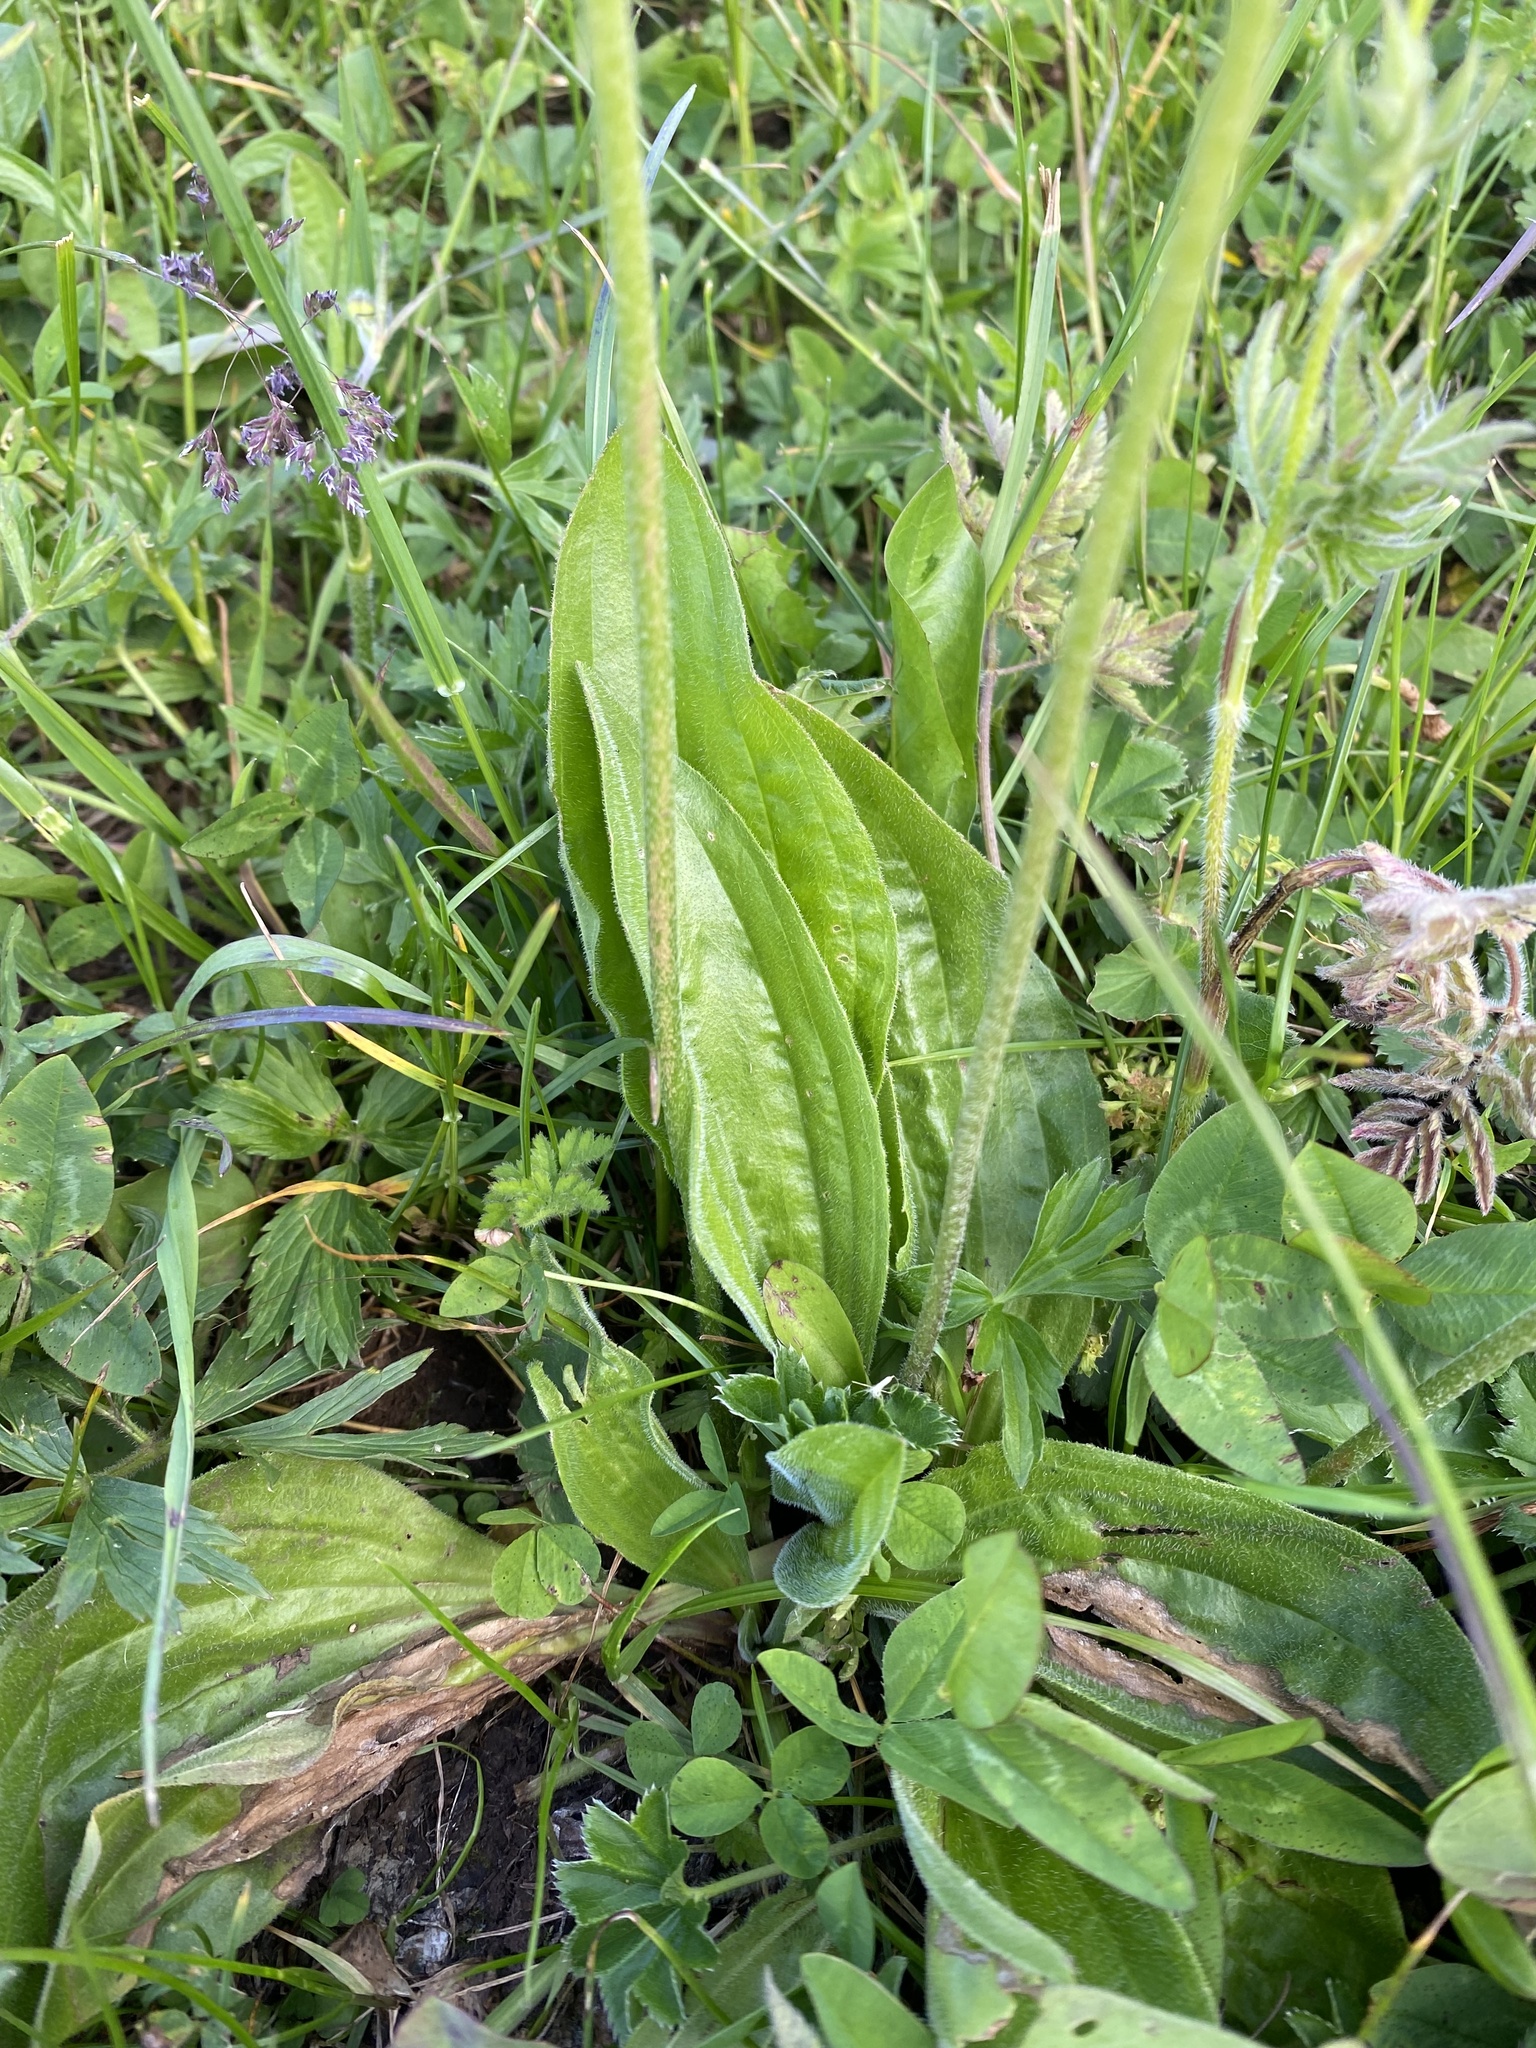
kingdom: Plantae
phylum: Tracheophyta
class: Magnoliopsida
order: Lamiales
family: Plantaginaceae
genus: Plantago
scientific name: Plantago media
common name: Hoary plantain
